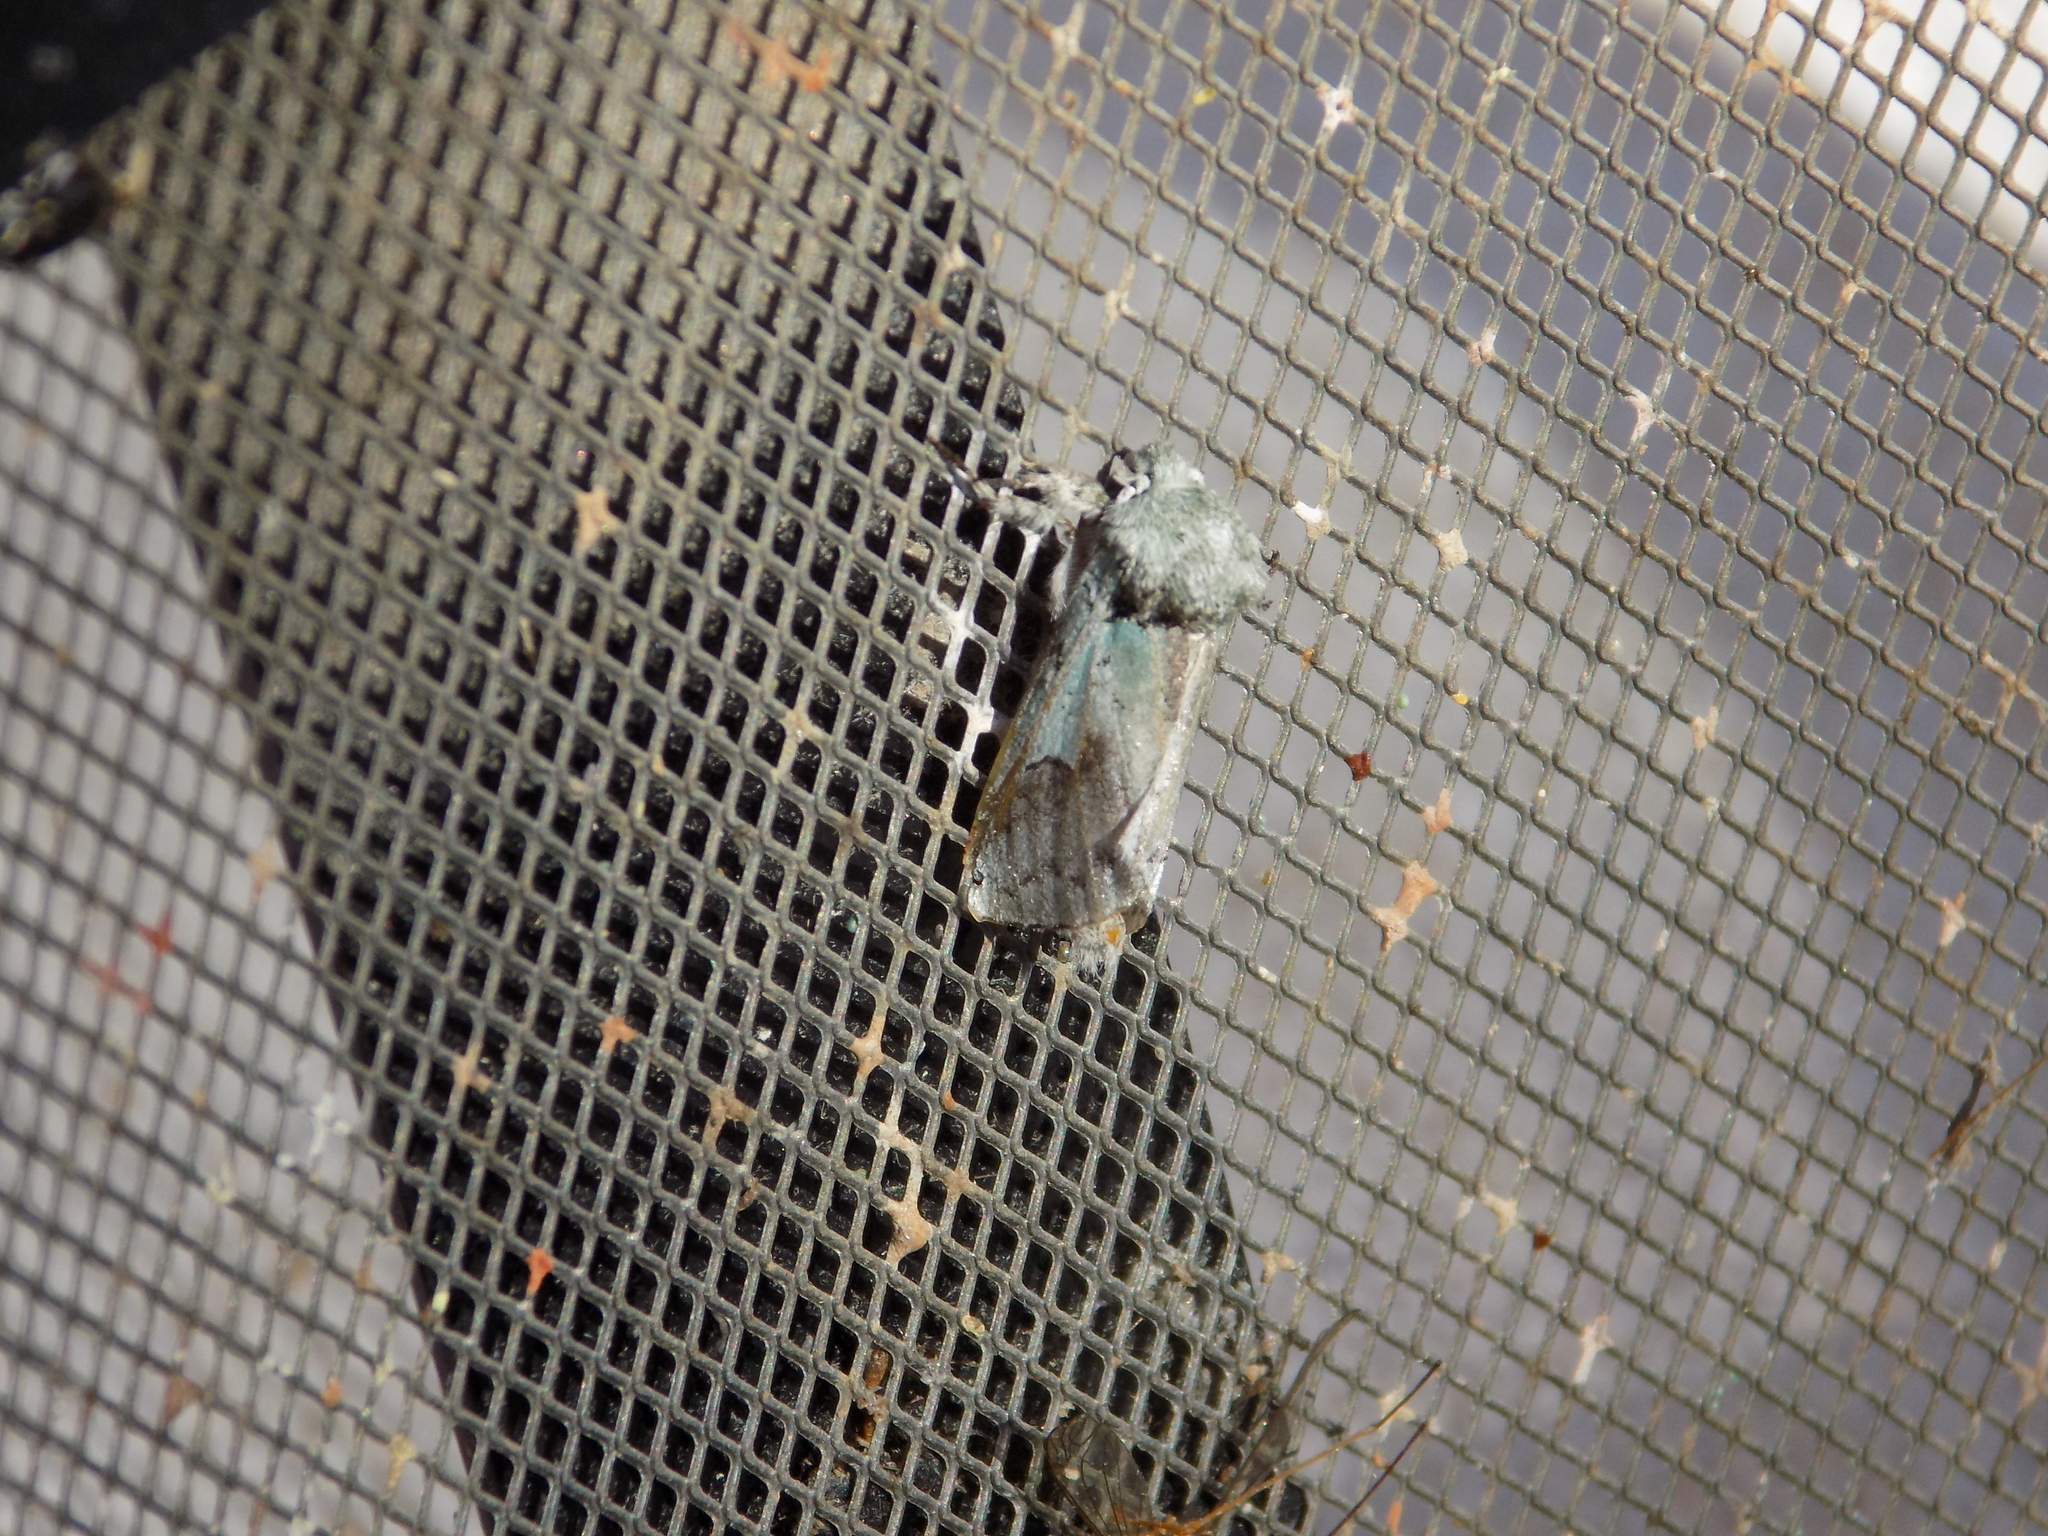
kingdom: Animalia
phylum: Arthropoda
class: Insecta
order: Lepidoptera
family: Notodontidae
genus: Litodonta
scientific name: Litodonta hydromeli
